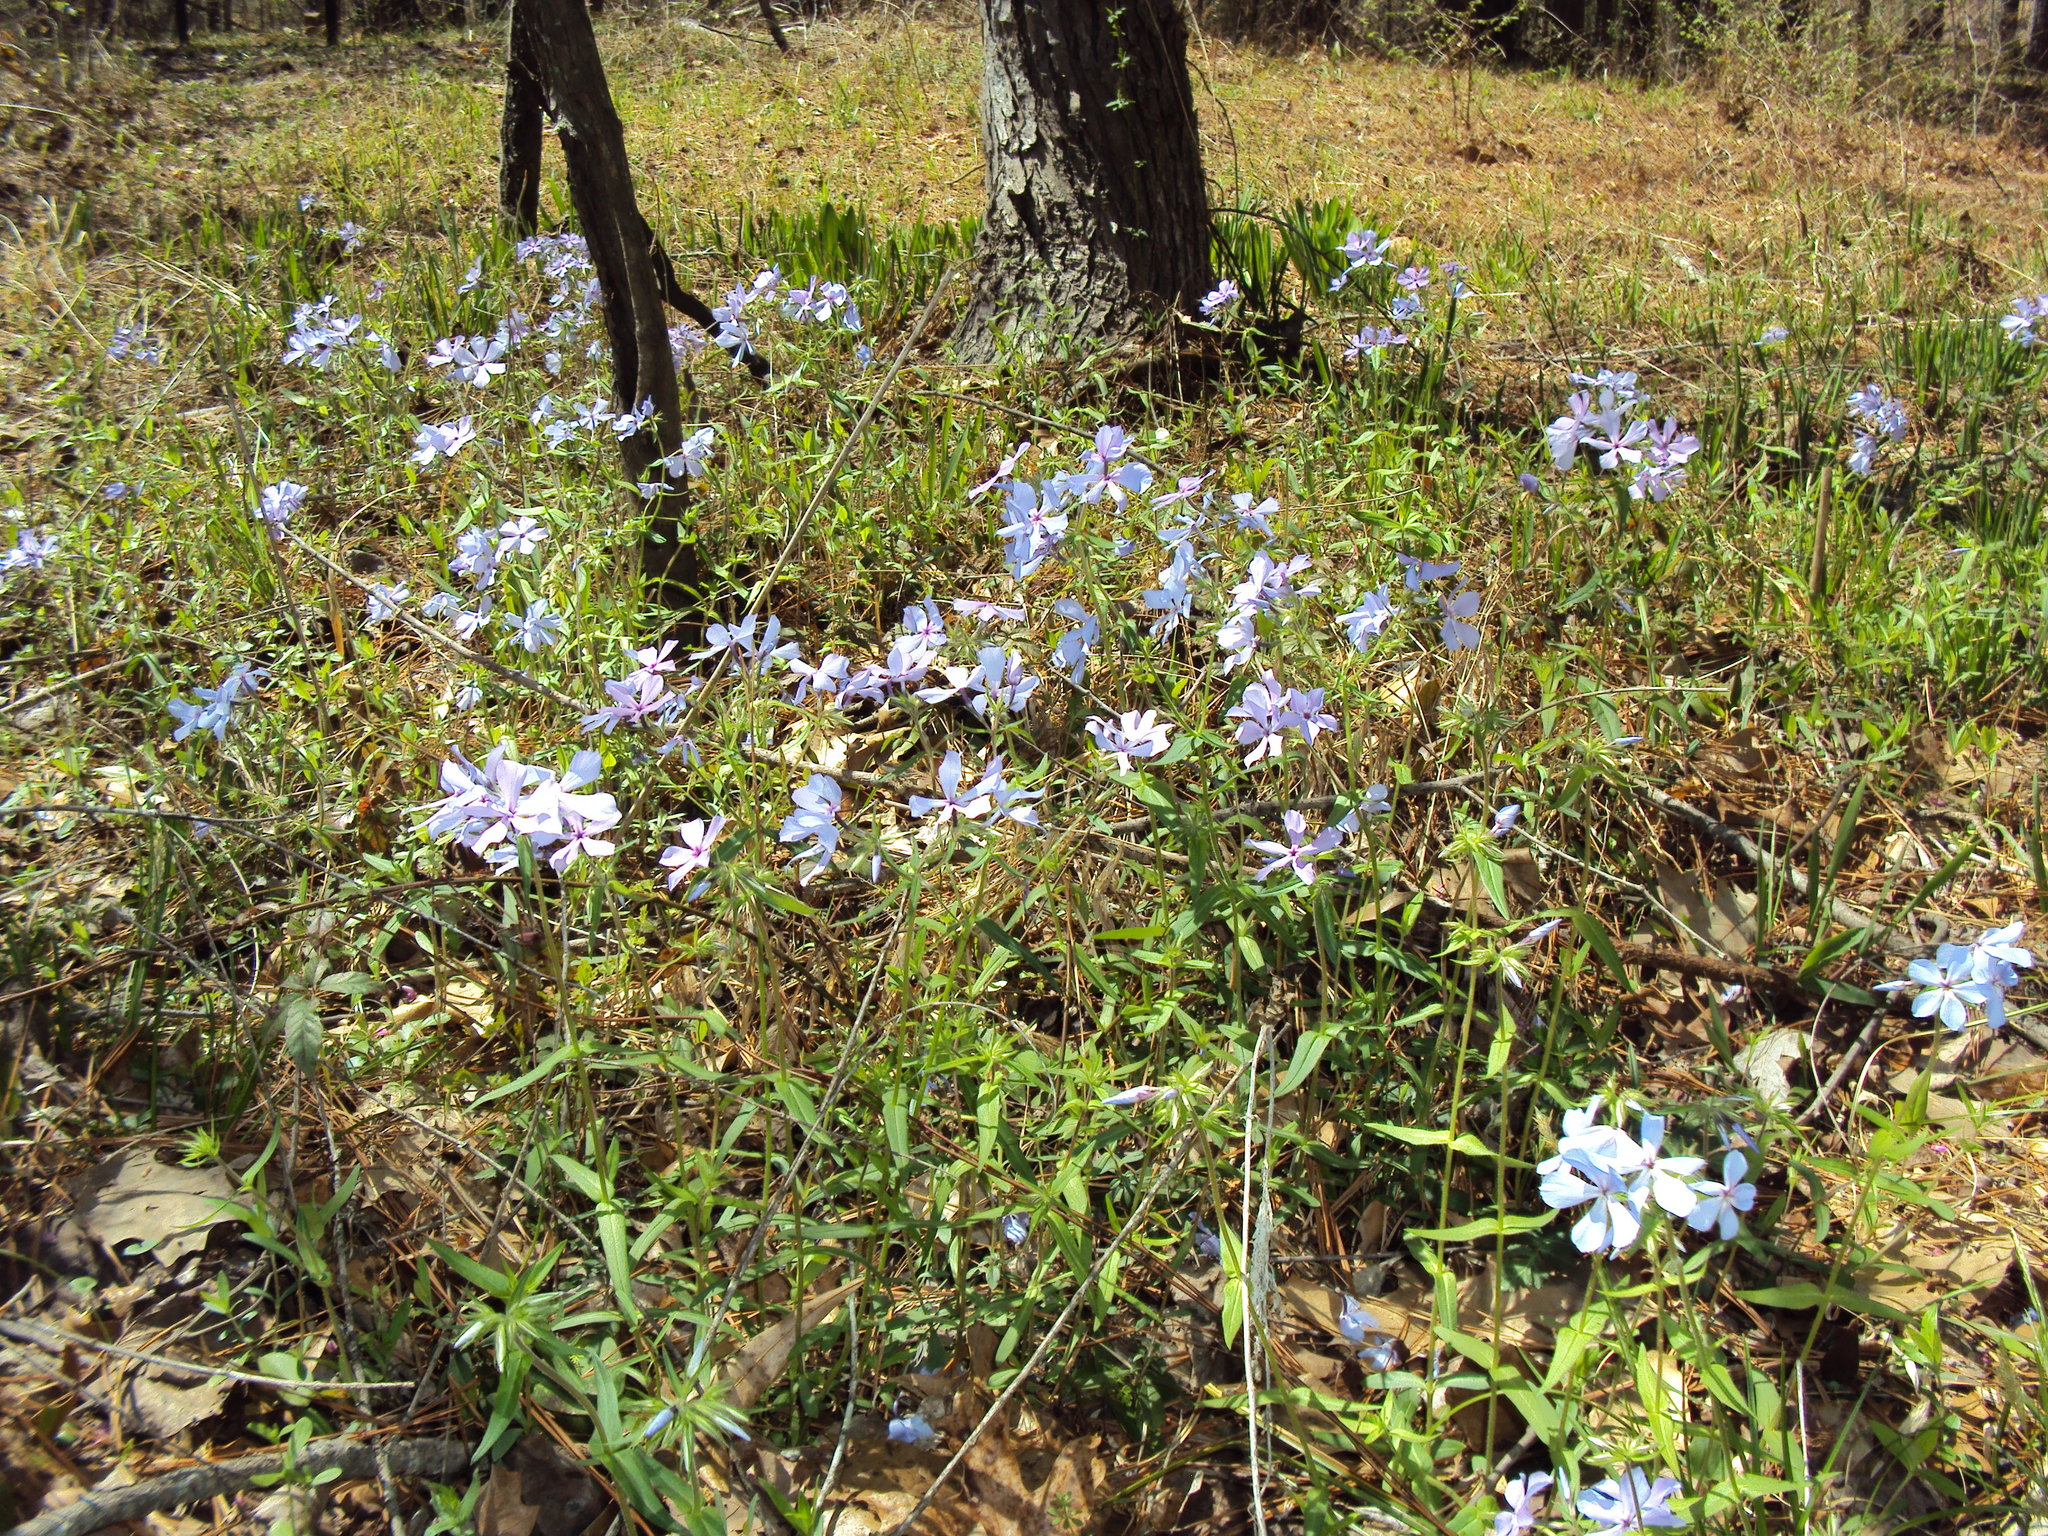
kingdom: Plantae
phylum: Tracheophyta
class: Magnoliopsida
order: Ericales
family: Polemoniaceae
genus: Phlox
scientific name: Phlox divaricata
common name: Blue phlox
